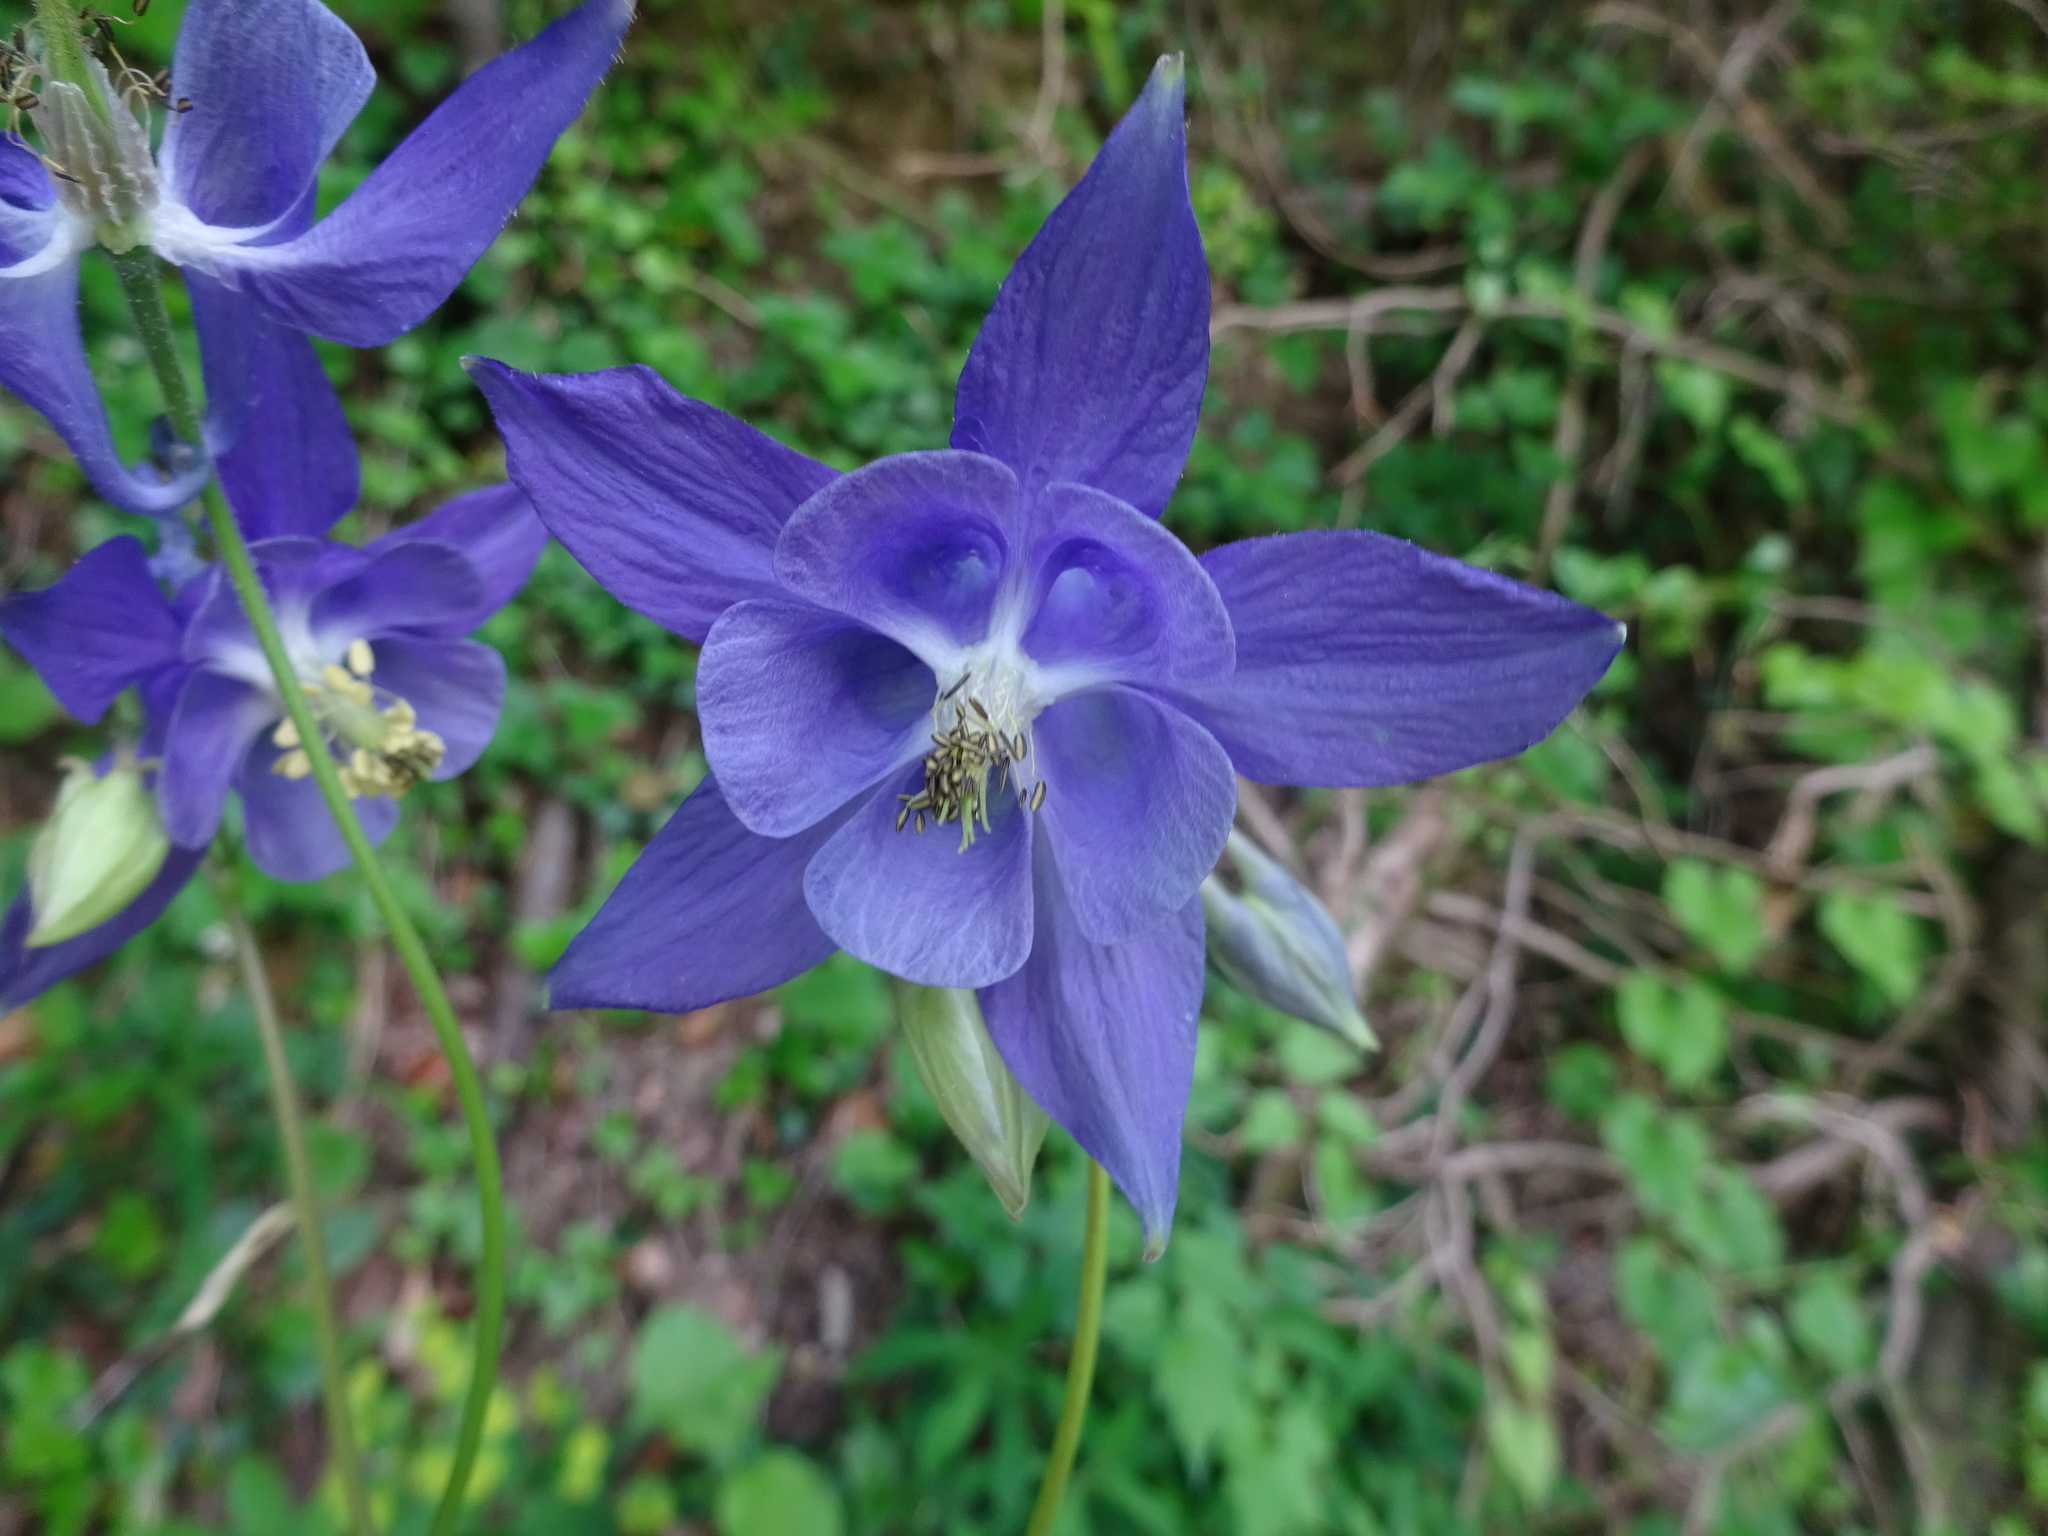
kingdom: Plantae
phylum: Tracheophyta
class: Magnoliopsida
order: Ranunculales
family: Ranunculaceae
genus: Aquilegia
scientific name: Aquilegia vulgaris
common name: Columbine
